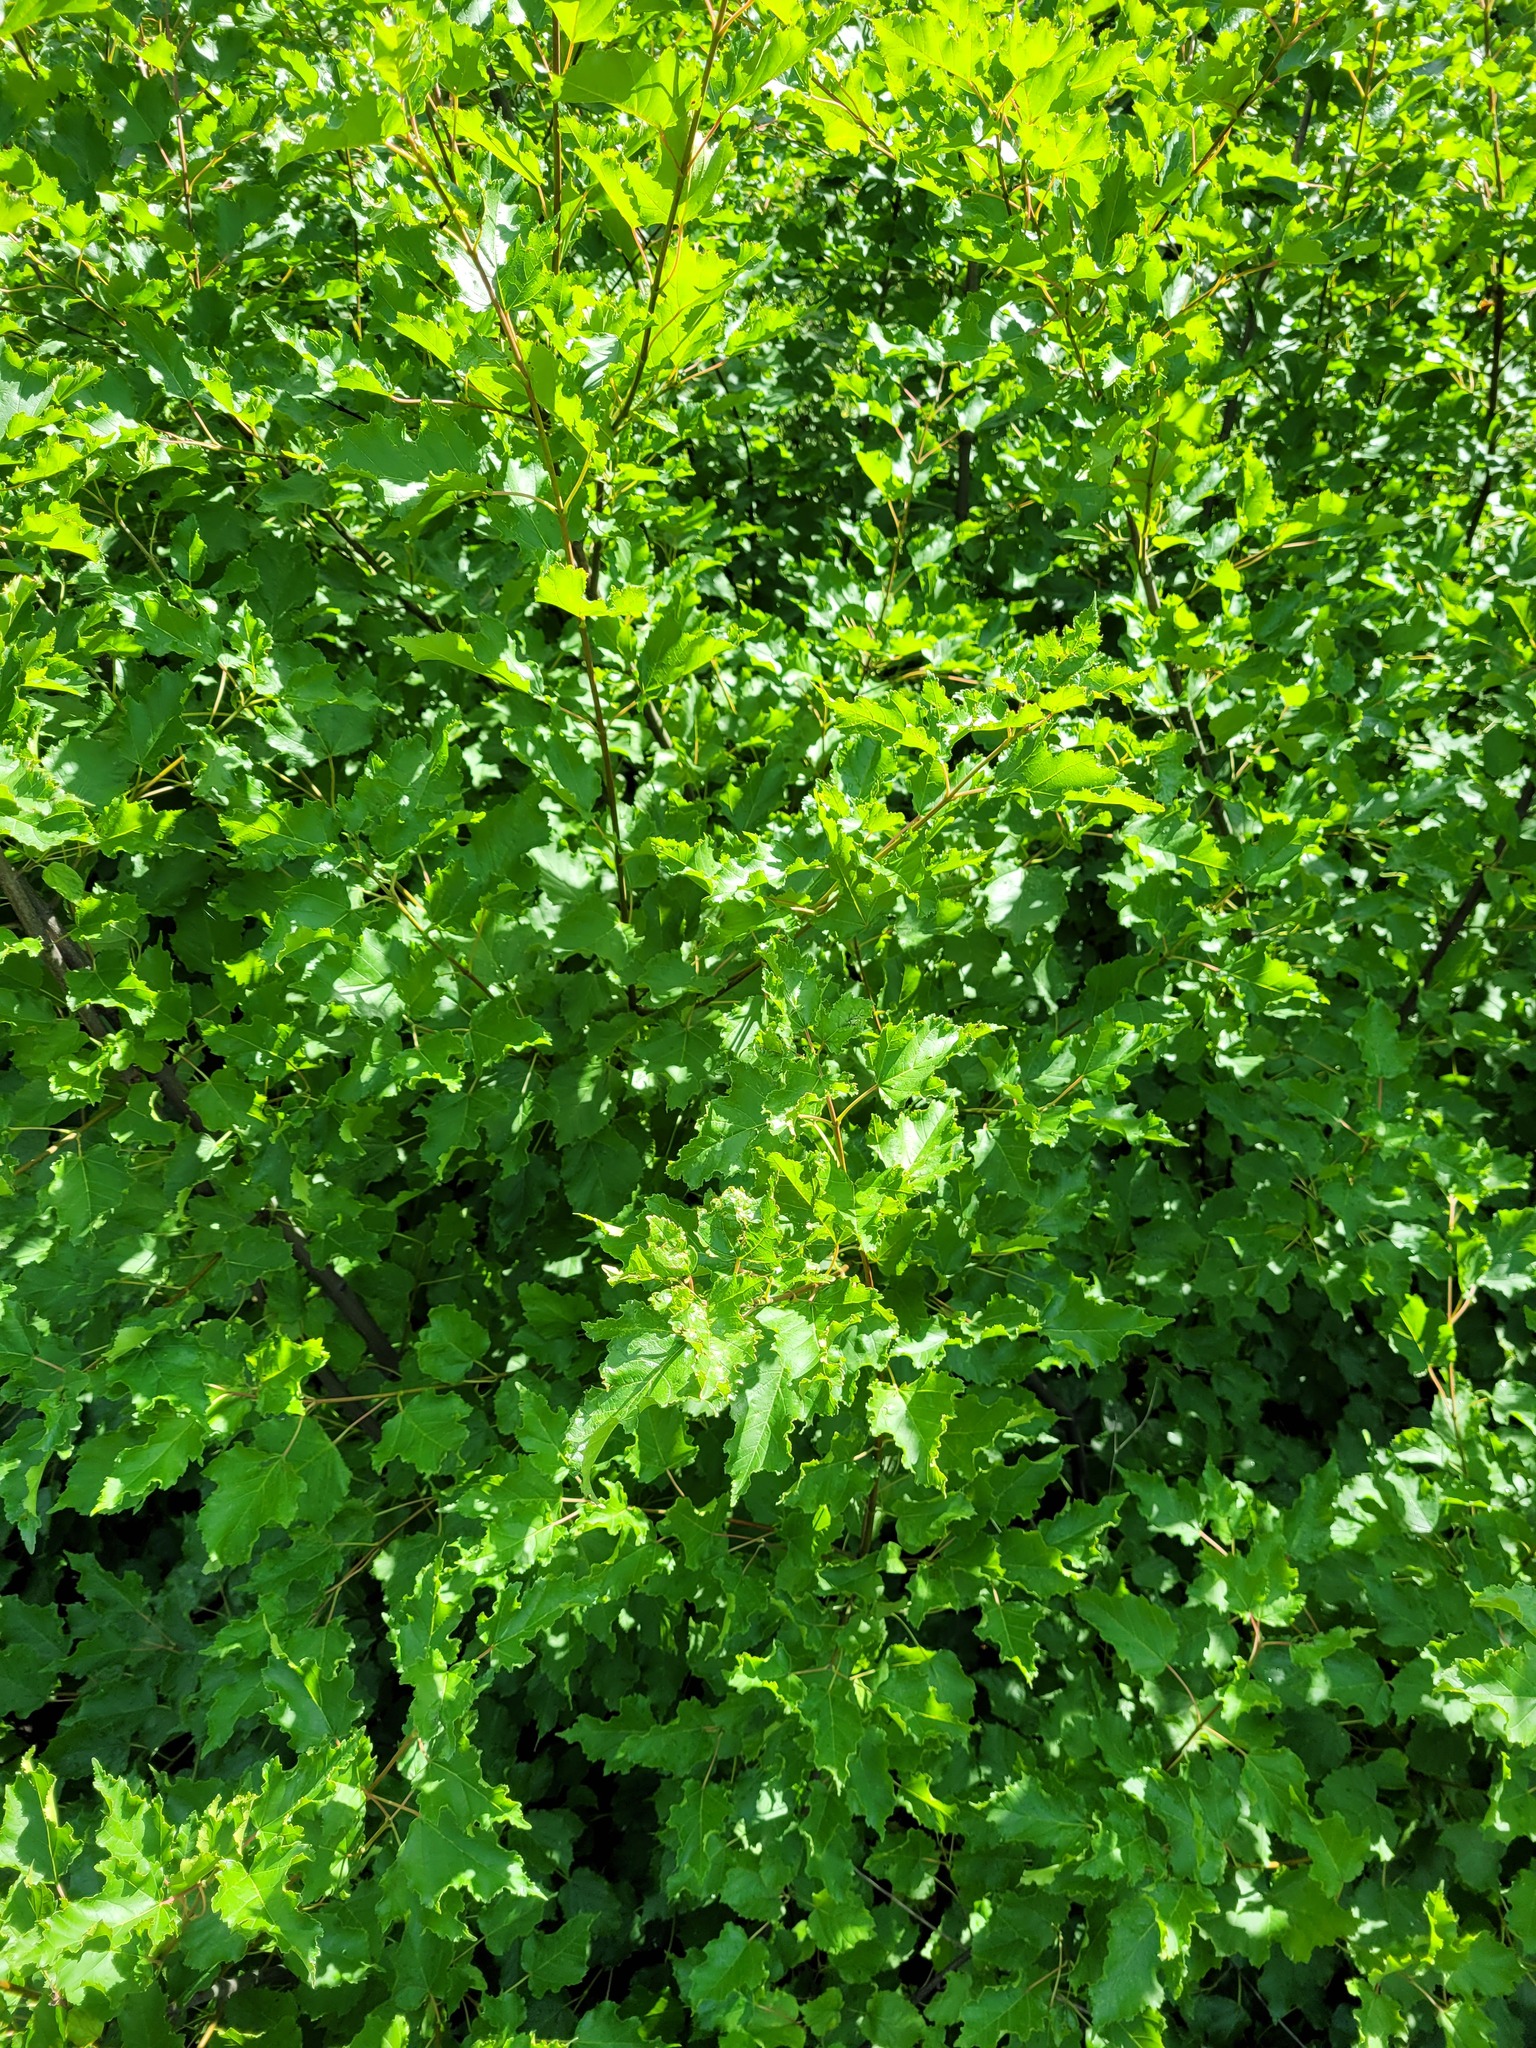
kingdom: Plantae
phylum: Tracheophyta
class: Magnoliopsida
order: Sapindales
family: Sapindaceae
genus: Acer
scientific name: Acer tataricum
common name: Tartar maple
